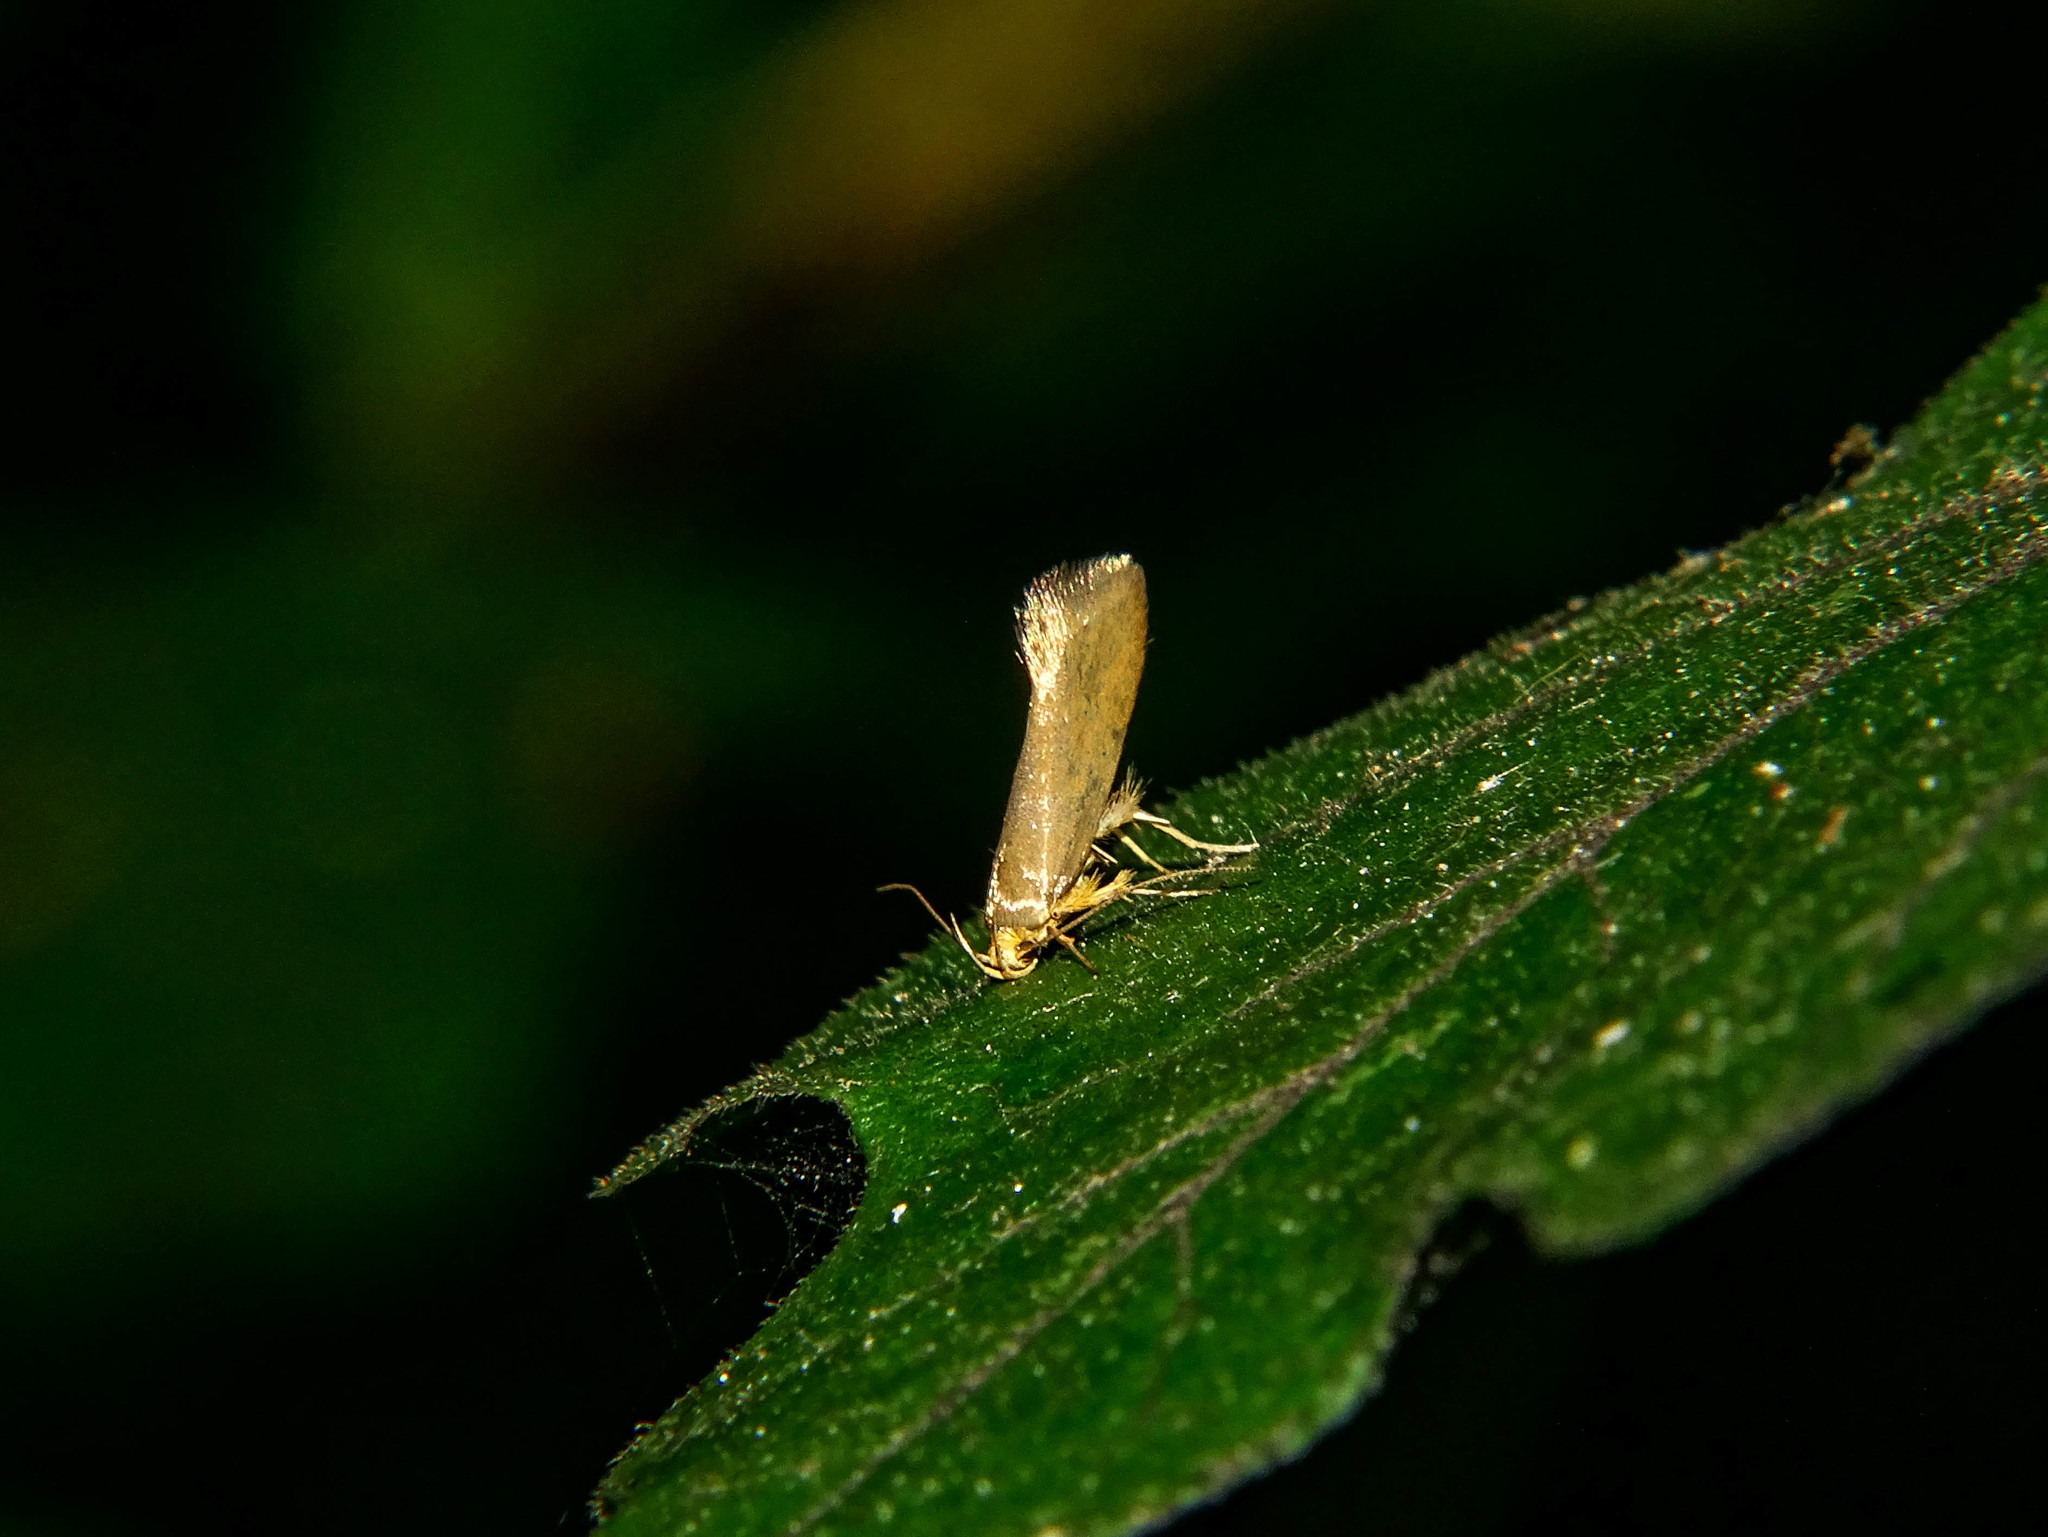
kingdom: Animalia
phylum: Arthropoda
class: Insecta
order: Lepidoptera
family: Oecophoridae
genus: Borkhausenia
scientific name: Borkhausenia Crassa unitella
